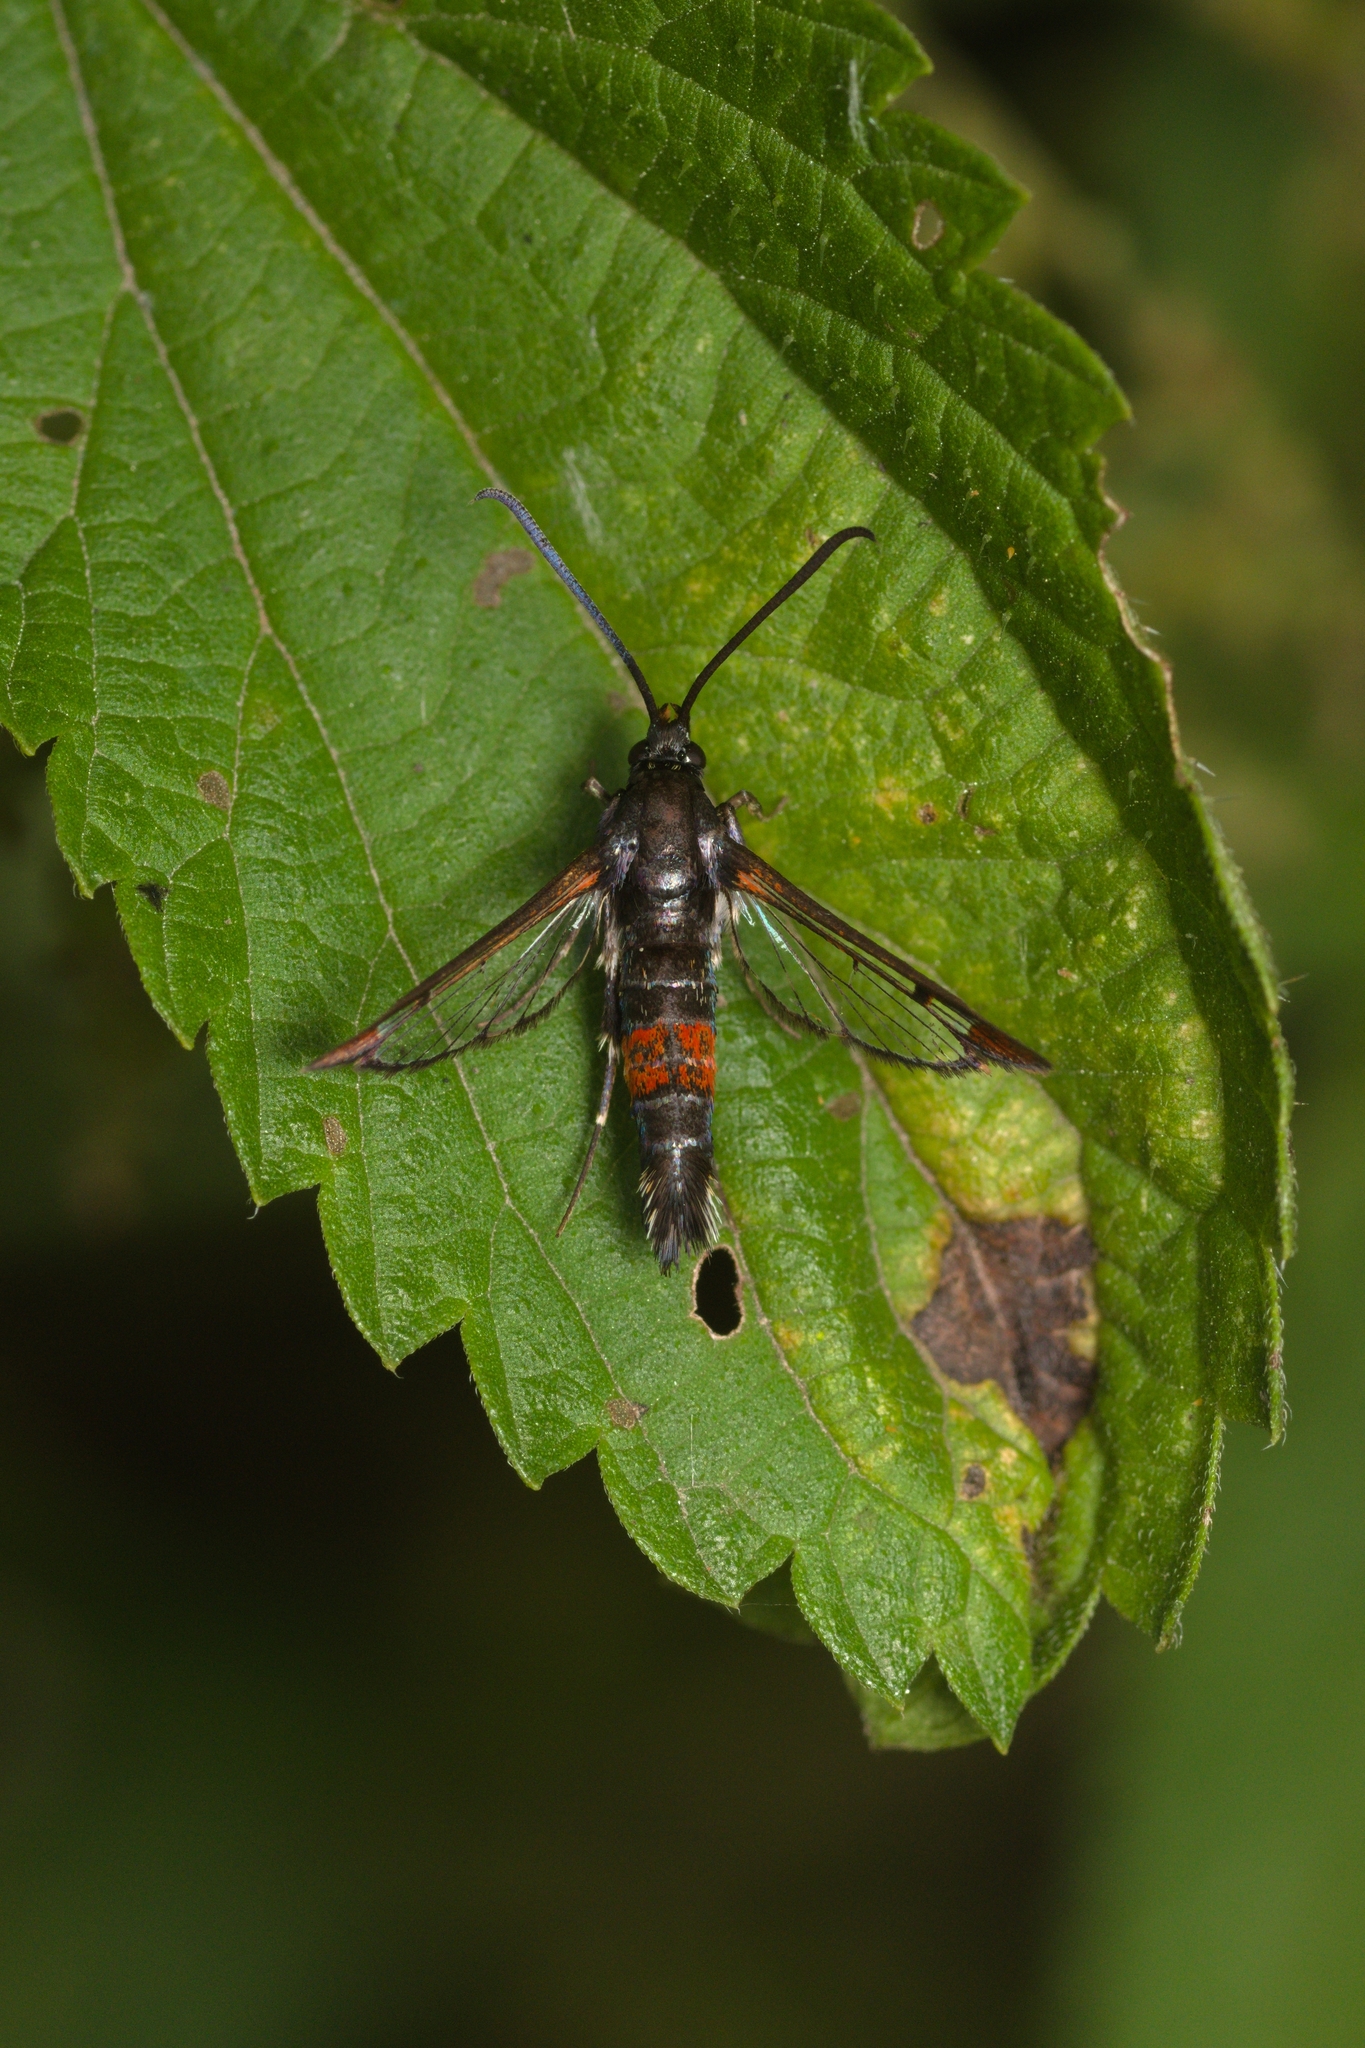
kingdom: Animalia
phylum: Arthropoda
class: Insecta
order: Lepidoptera
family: Sesiidae
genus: Synanthedon
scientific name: Synanthedon formicaeformis
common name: Red-tipped clearwing
